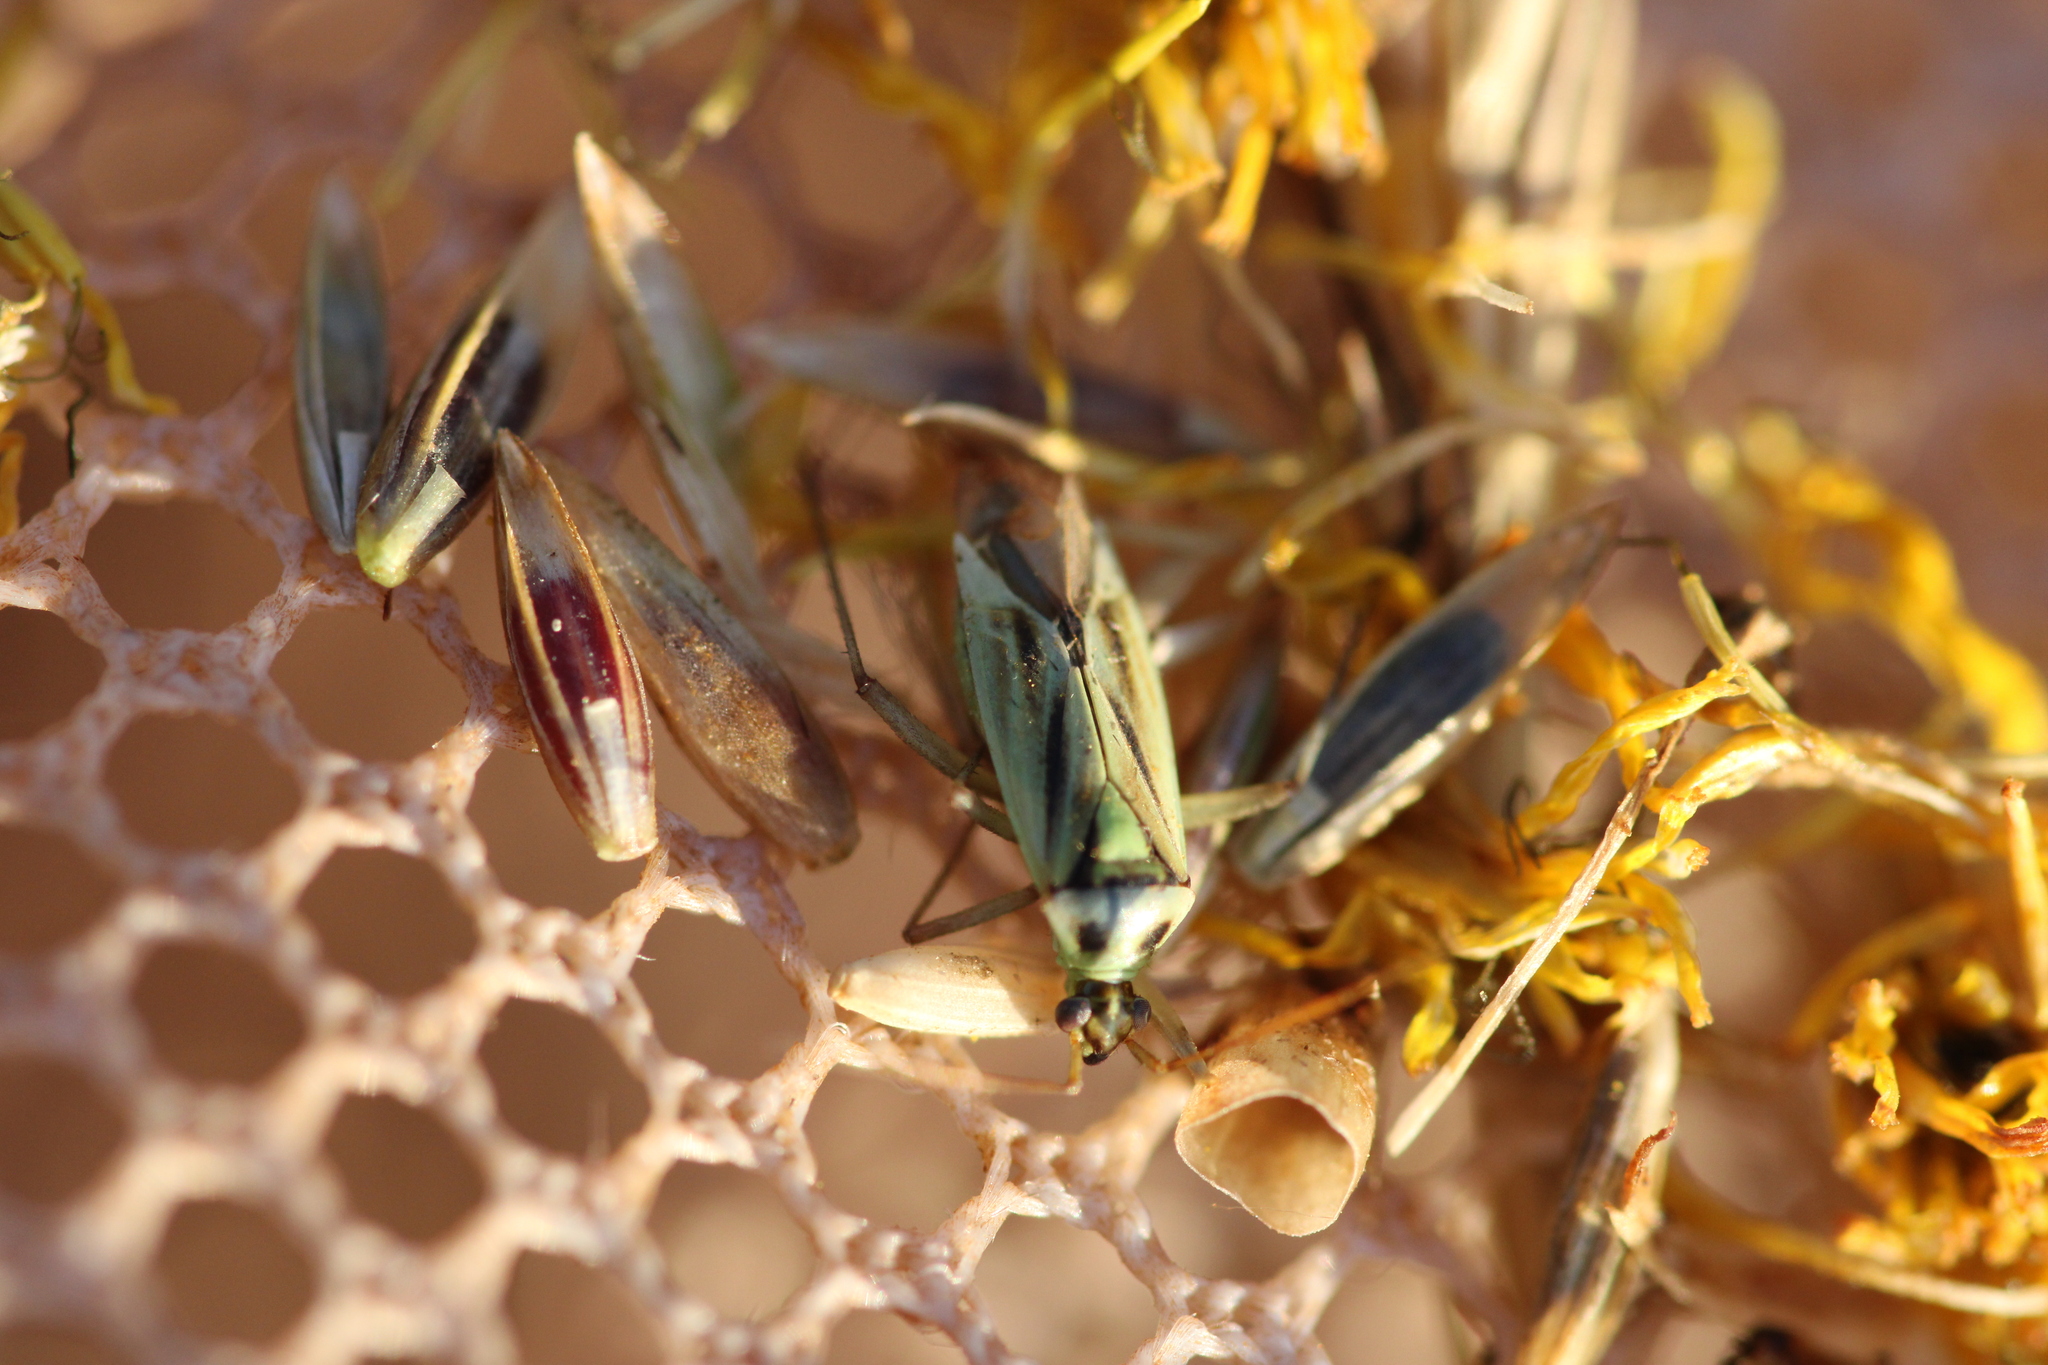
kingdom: Animalia
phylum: Arthropoda
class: Insecta
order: Hemiptera
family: Miridae
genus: Stenotus
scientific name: Stenotus binotatus
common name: Plant bug
